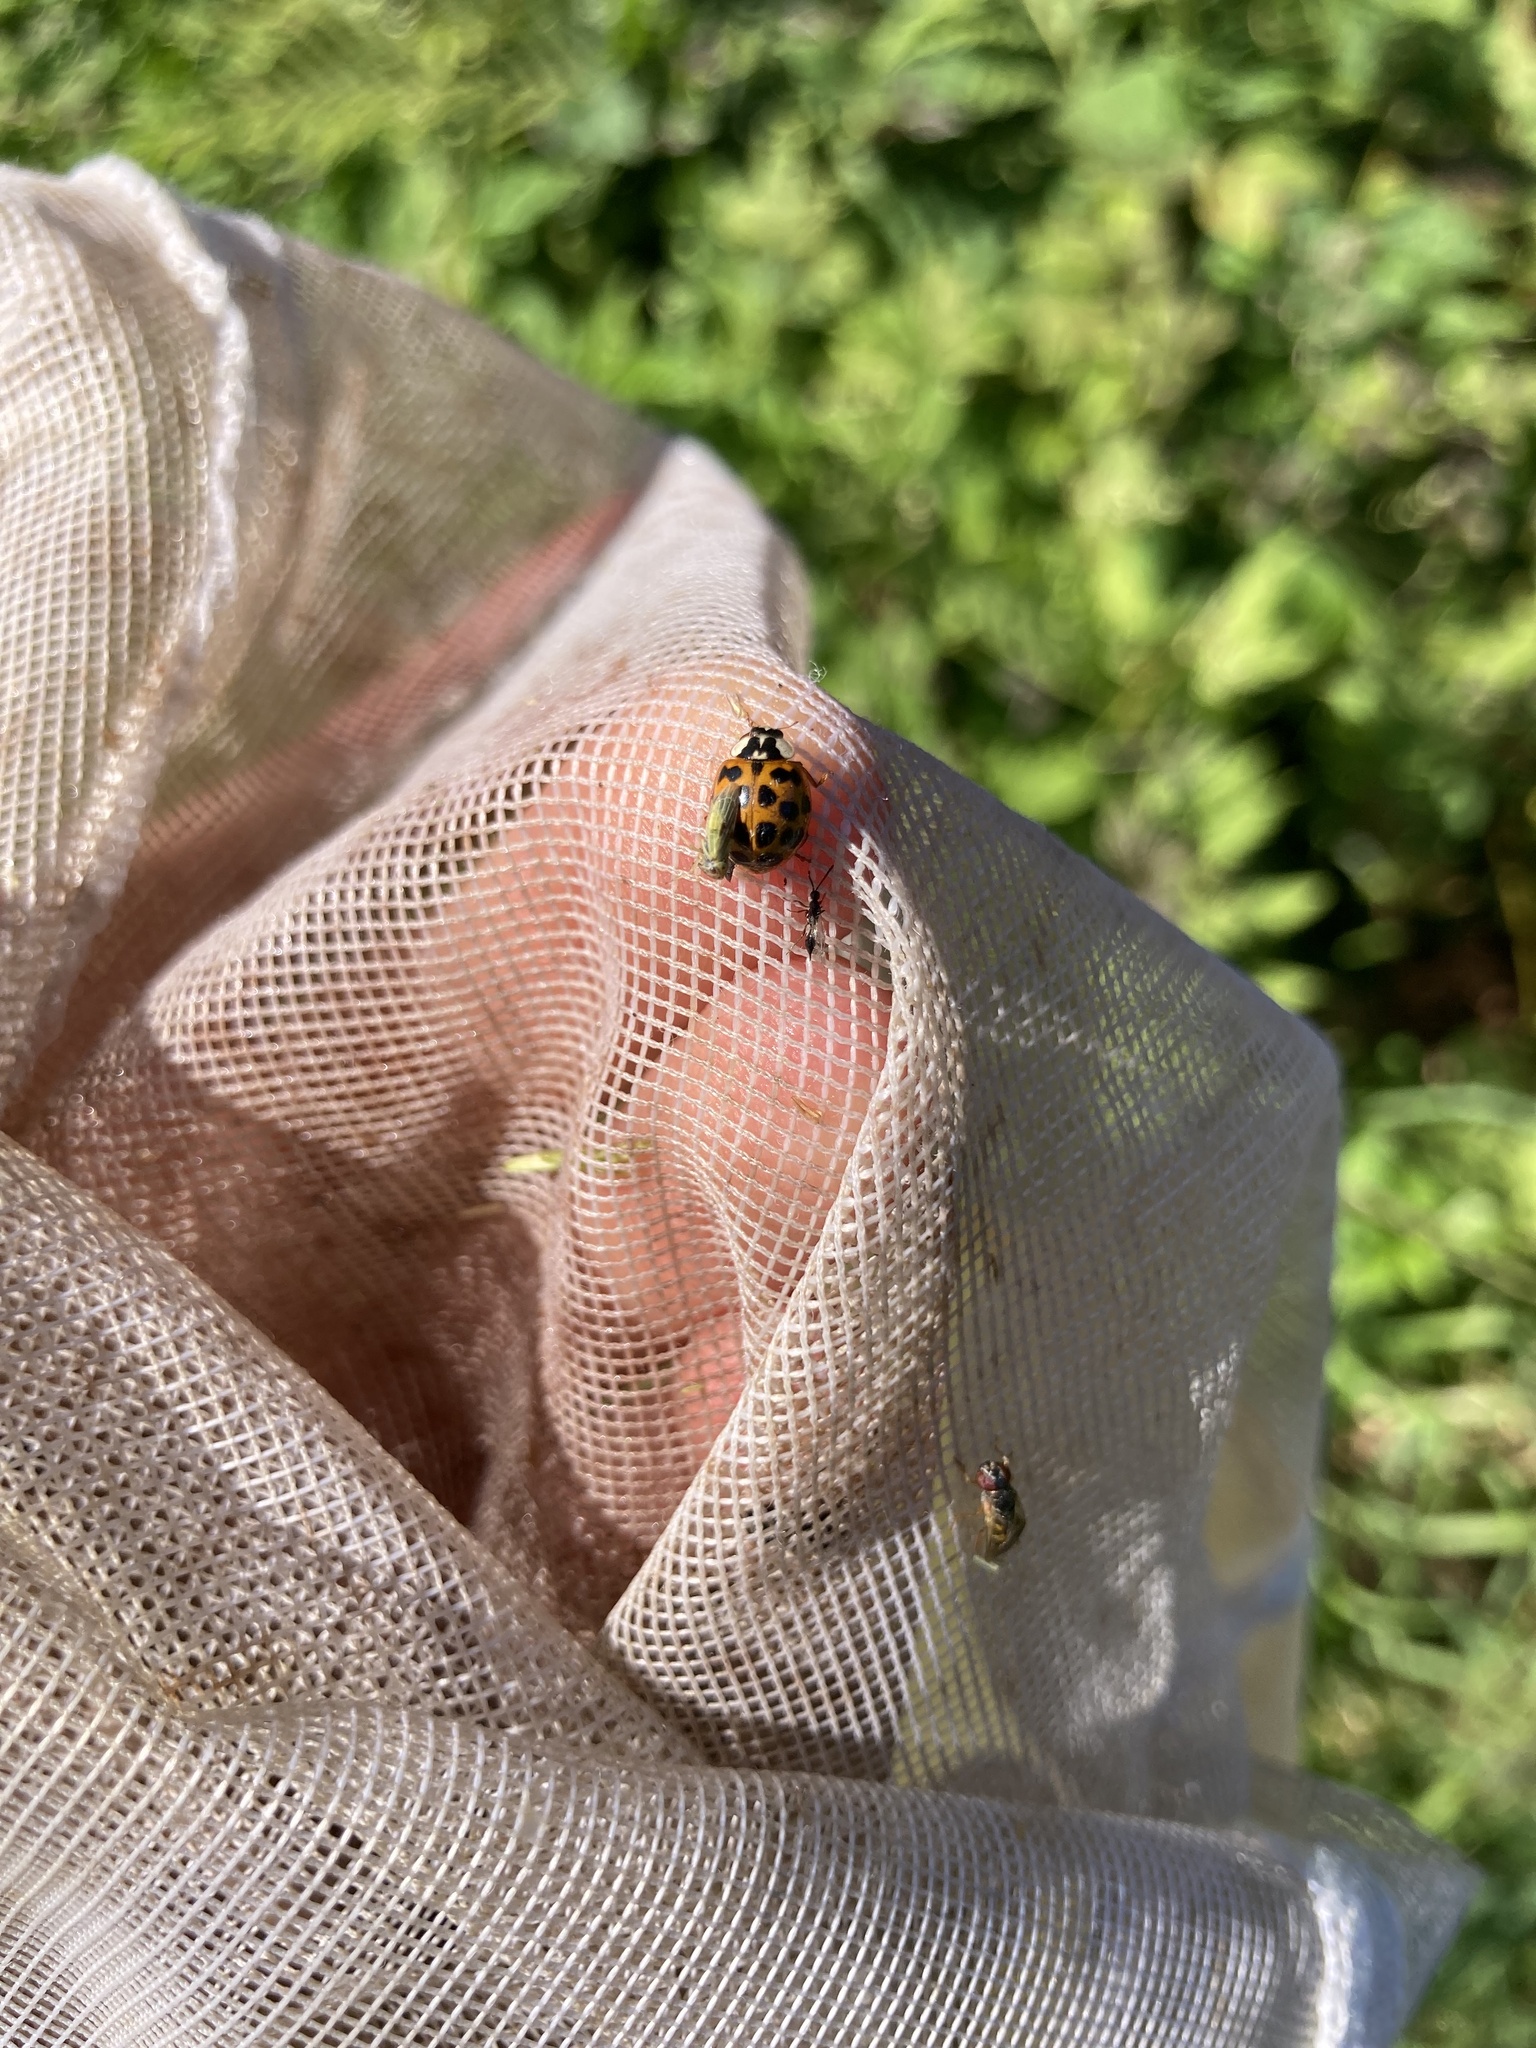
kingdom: Animalia
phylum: Arthropoda
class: Insecta
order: Coleoptera
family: Coccinellidae
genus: Harmonia
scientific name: Harmonia axyridis
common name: Harlequin ladybird
